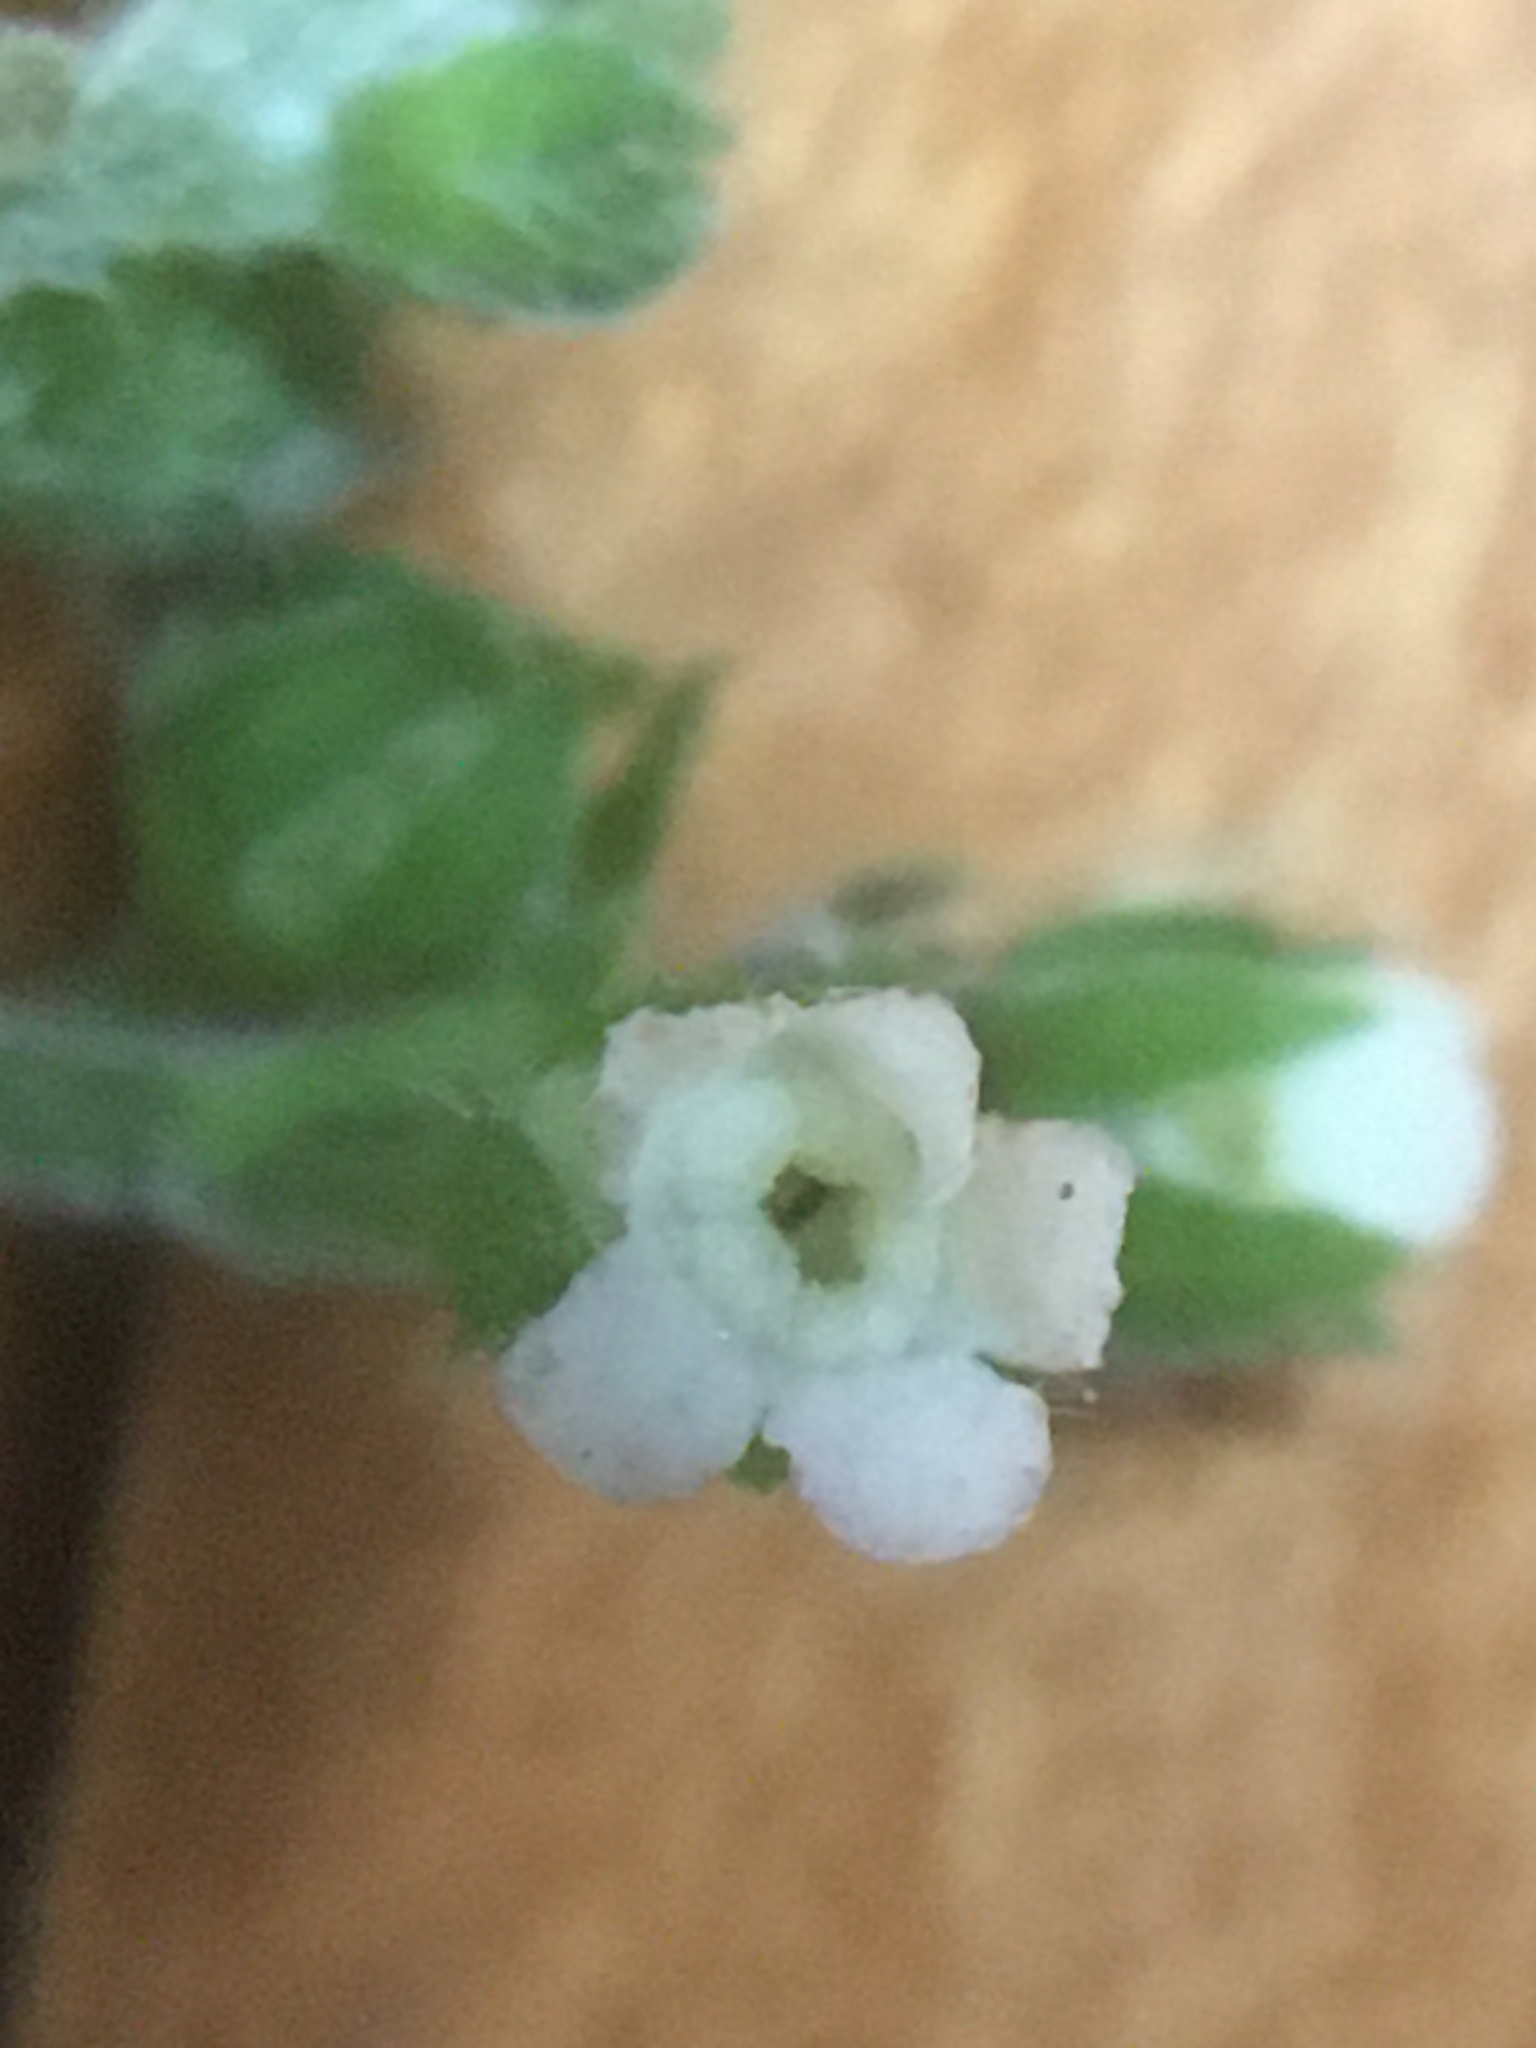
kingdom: Plantae
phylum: Tracheophyta
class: Magnoliopsida
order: Boraginales
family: Boraginaceae
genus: Hackelia
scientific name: Hackelia virginiana
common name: Beggar's-lice
